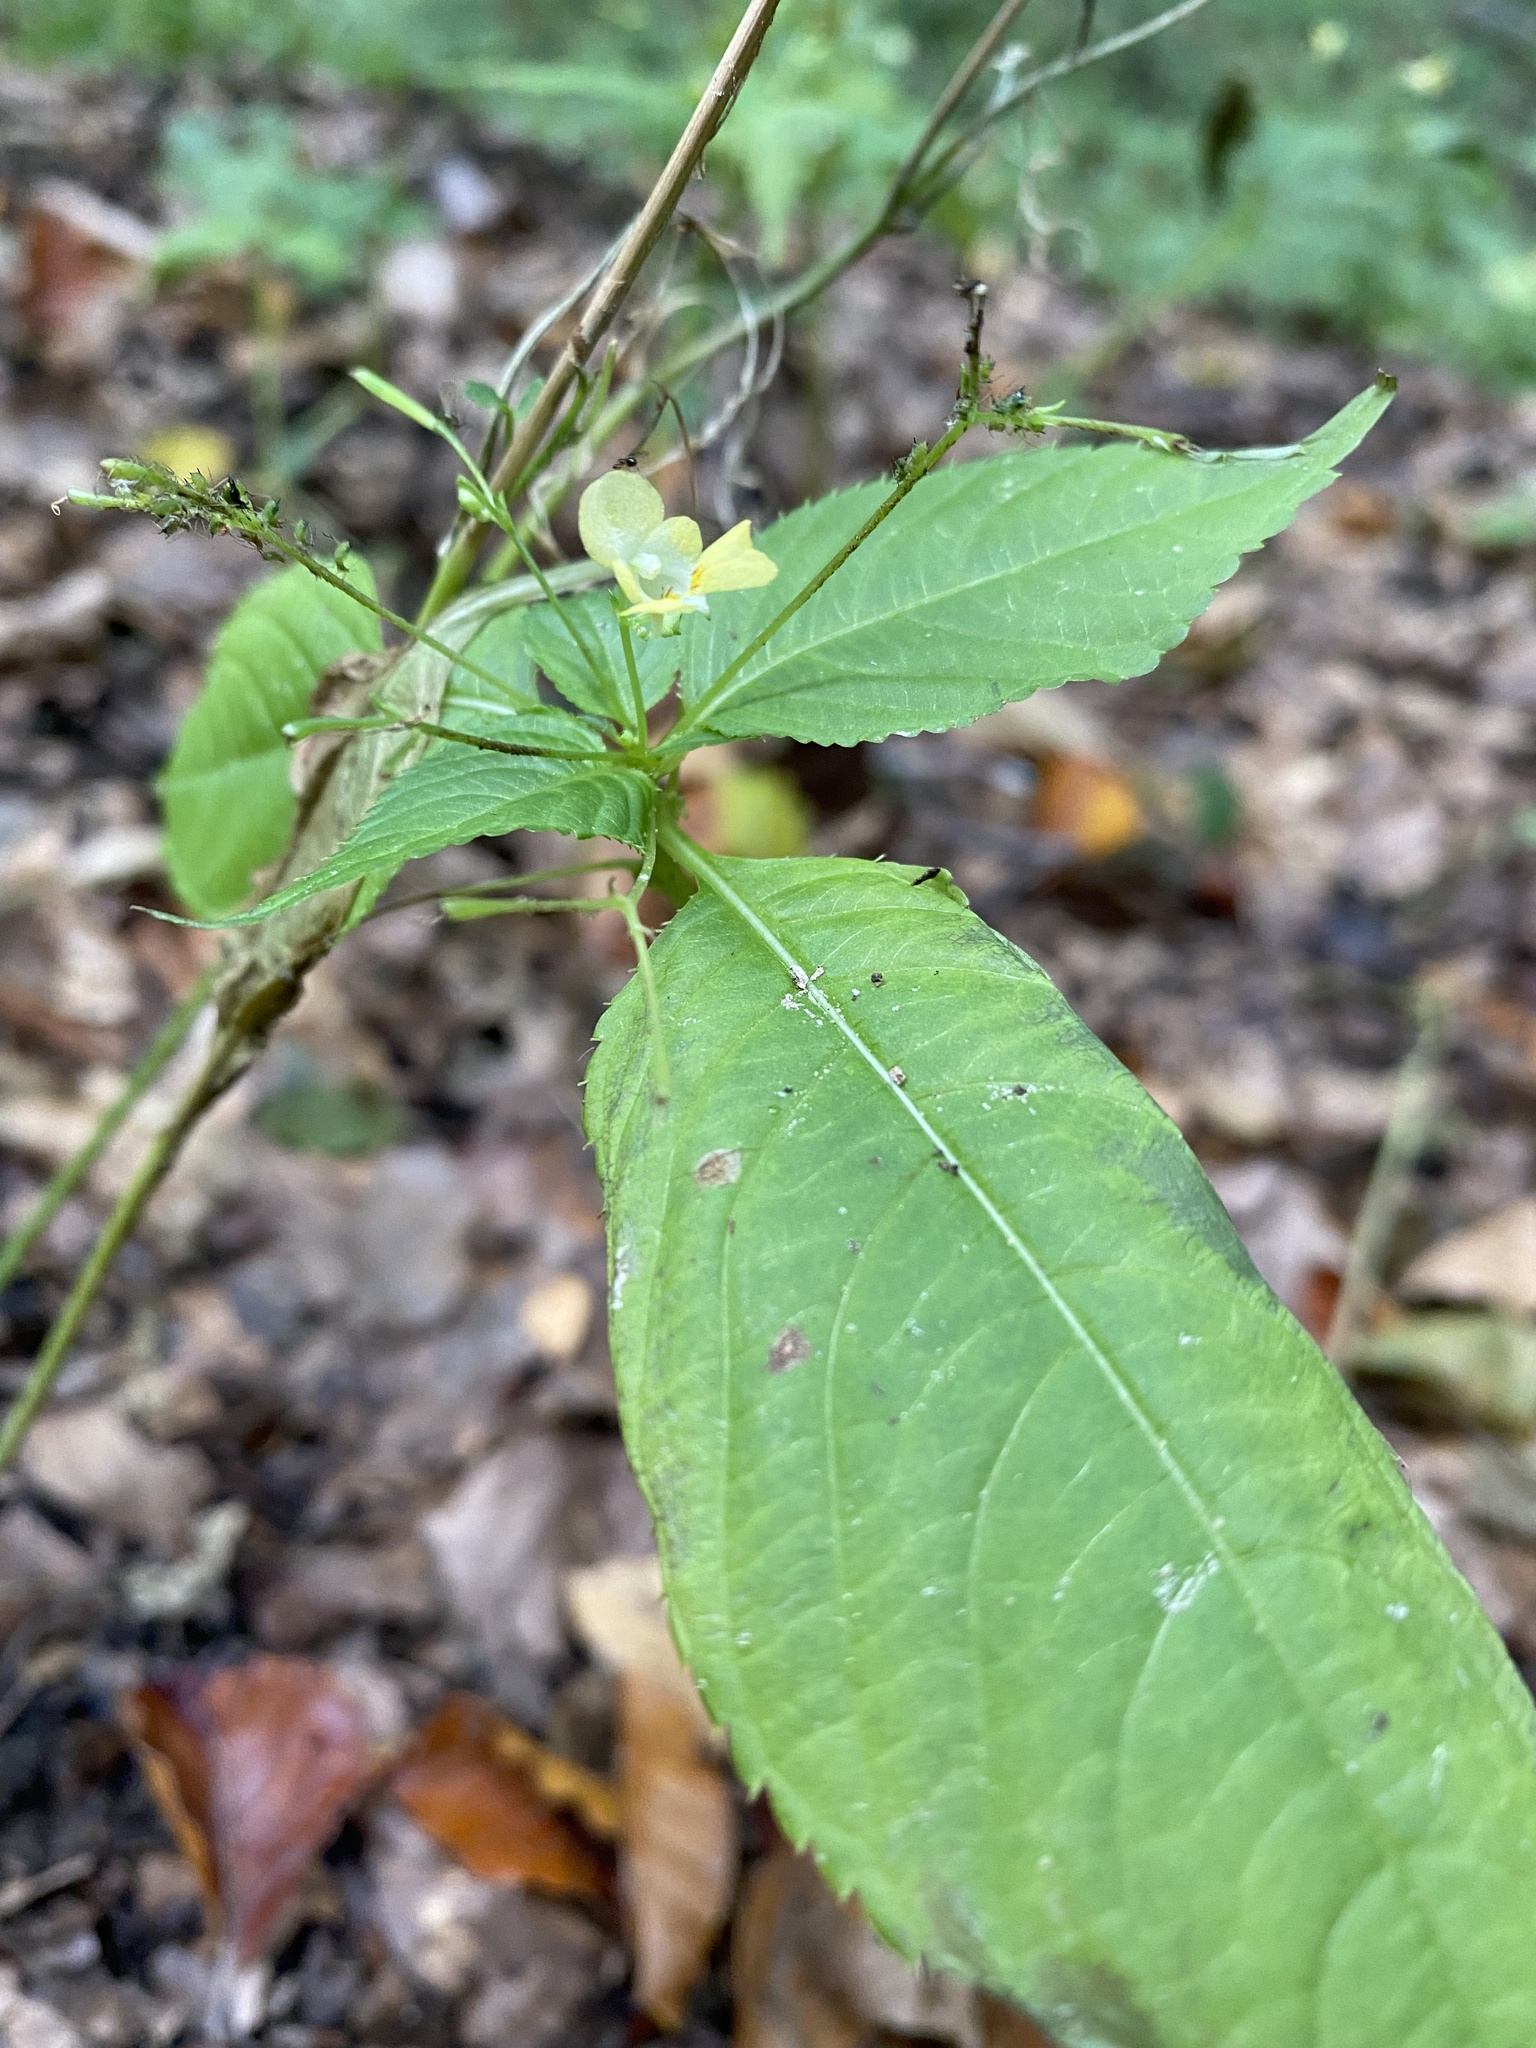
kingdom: Plantae
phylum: Tracheophyta
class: Magnoliopsida
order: Ericales
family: Balsaminaceae
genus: Impatiens
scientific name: Impatiens parviflora
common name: Small balsam
